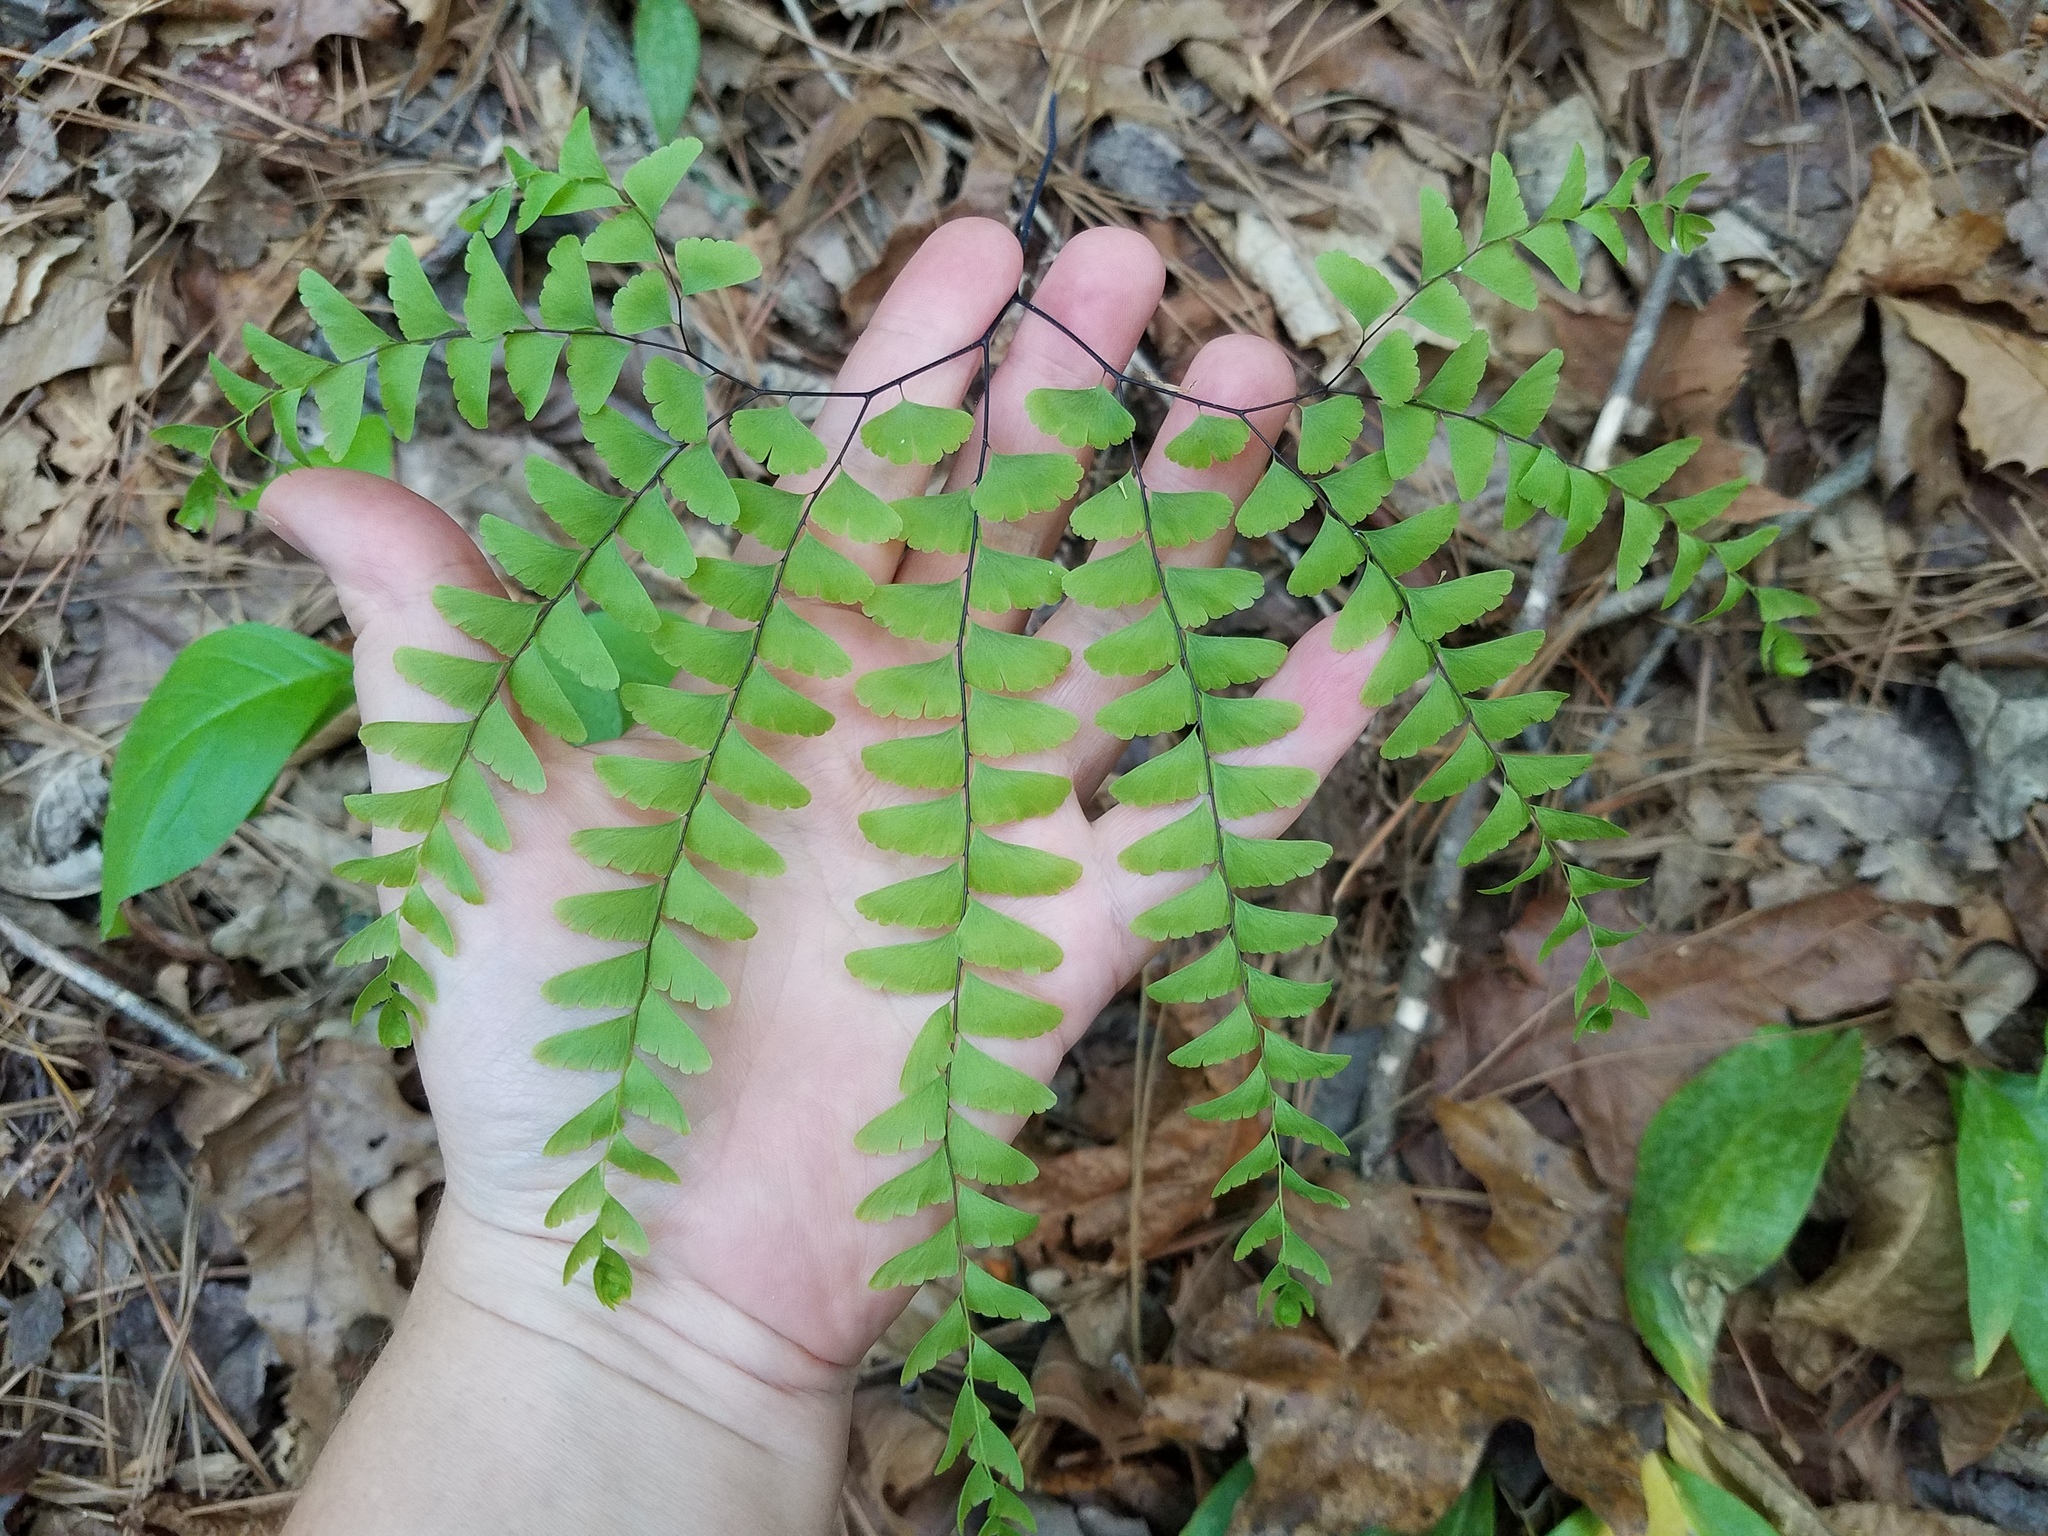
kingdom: Plantae
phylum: Tracheophyta
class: Polypodiopsida
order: Polypodiales
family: Pteridaceae
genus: Adiantum
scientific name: Adiantum pedatum
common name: Five-finger fern
